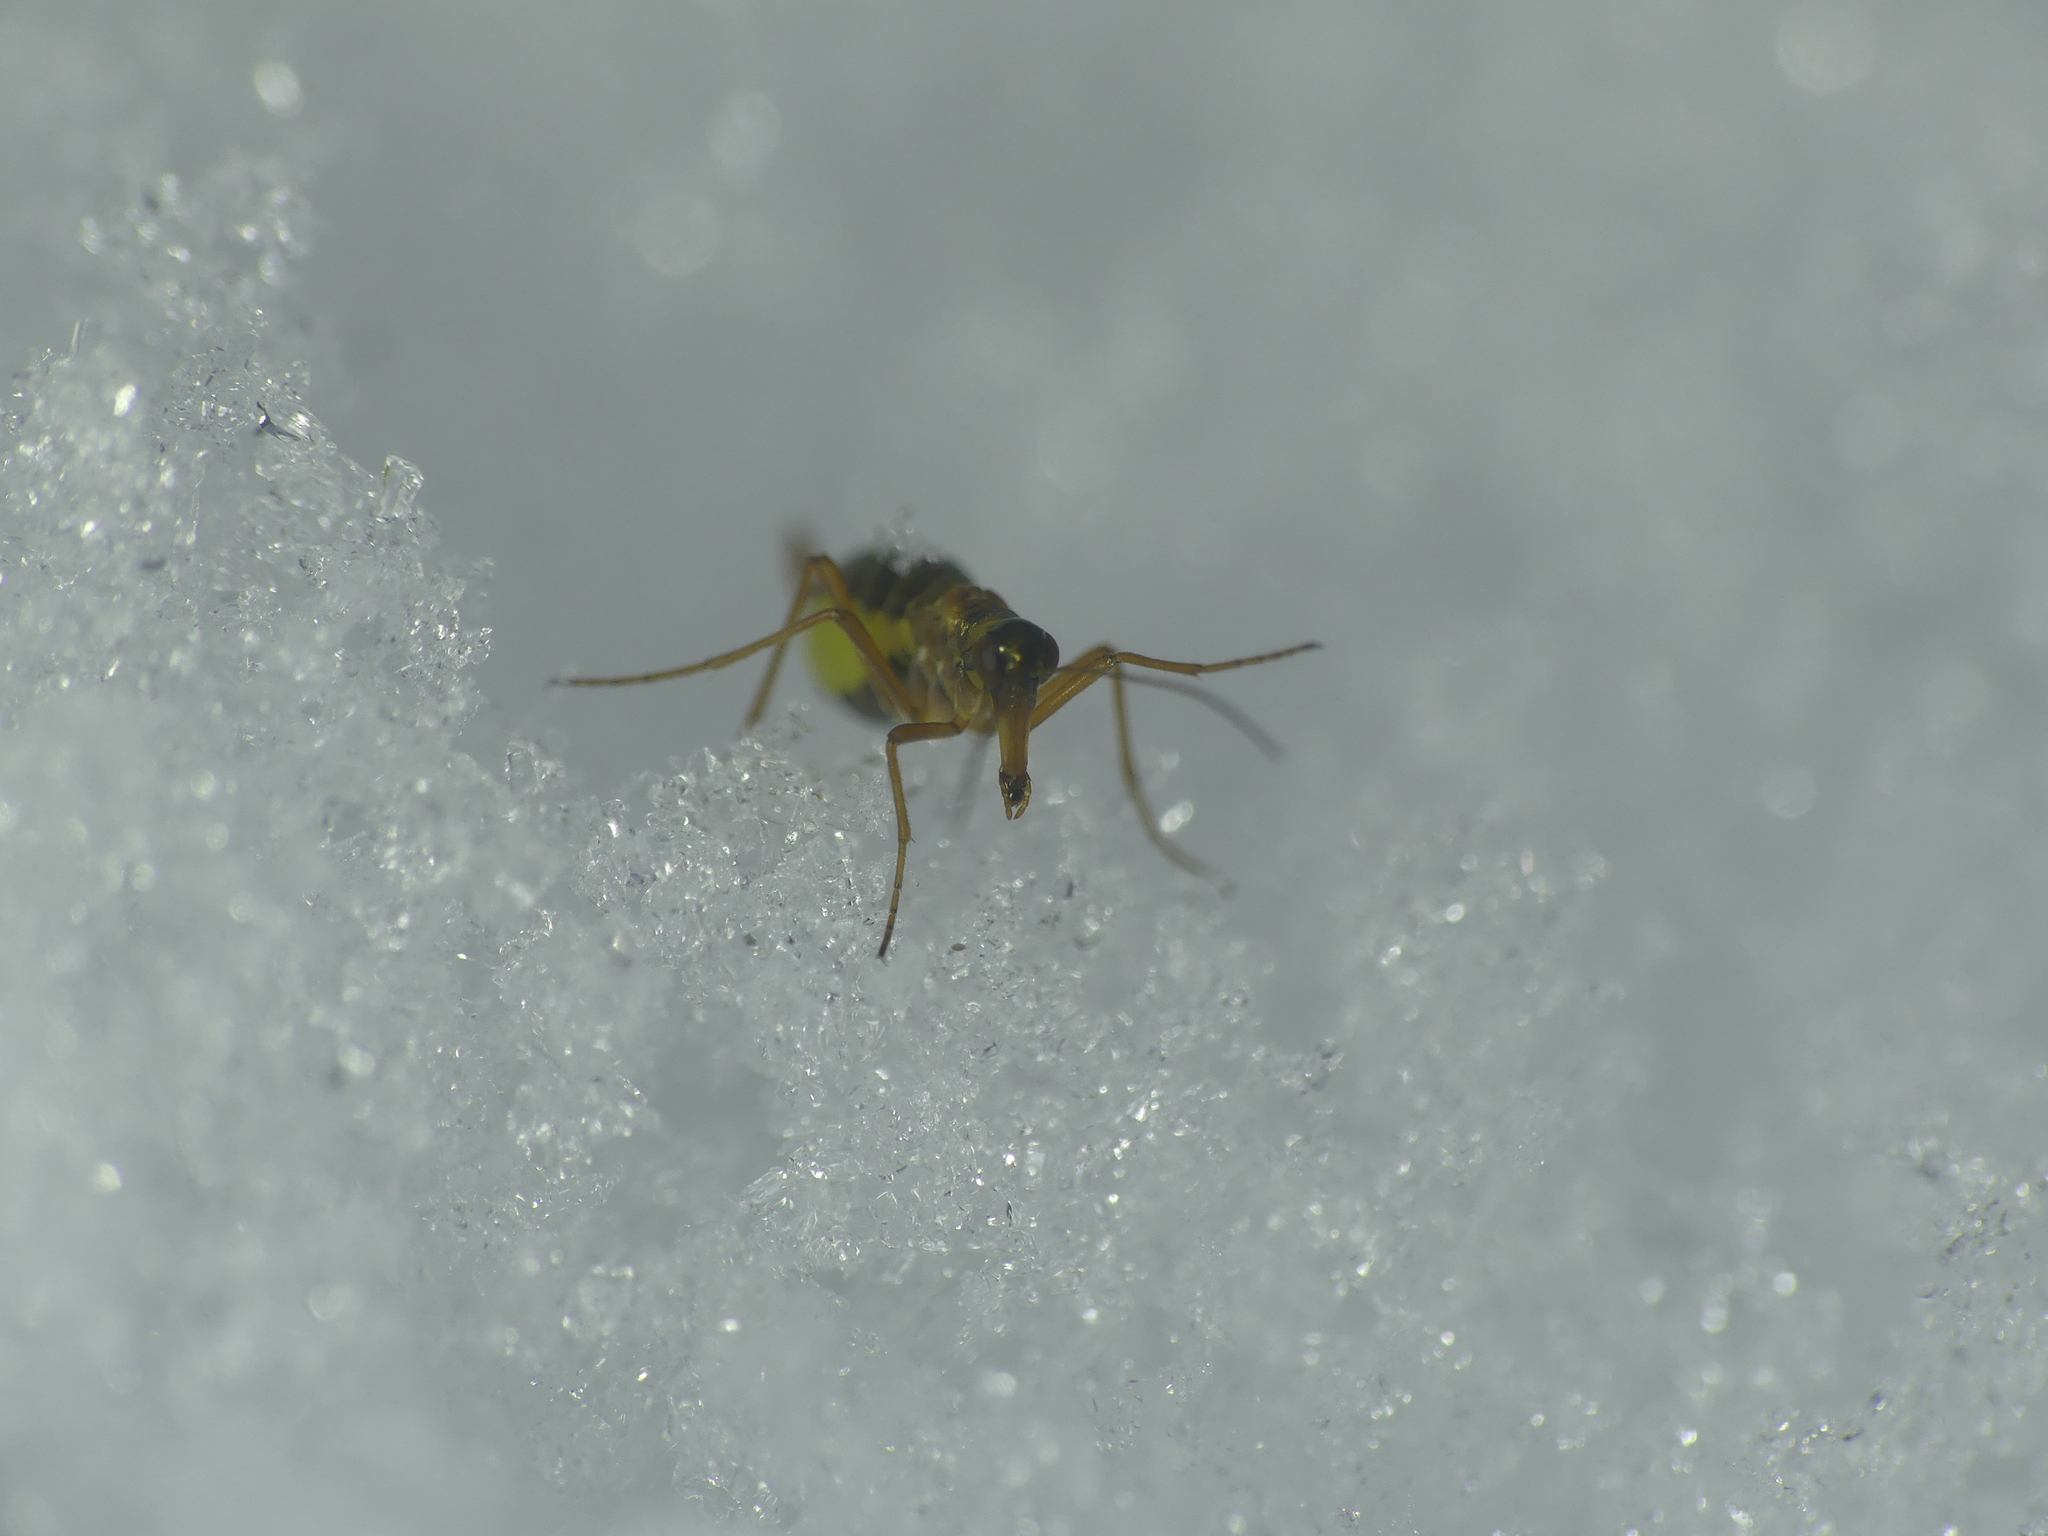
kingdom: Animalia
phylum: Arthropoda
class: Insecta
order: Mecoptera
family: Boreidae
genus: Boreus
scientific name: Boreus hyemalis
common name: Snow flea
